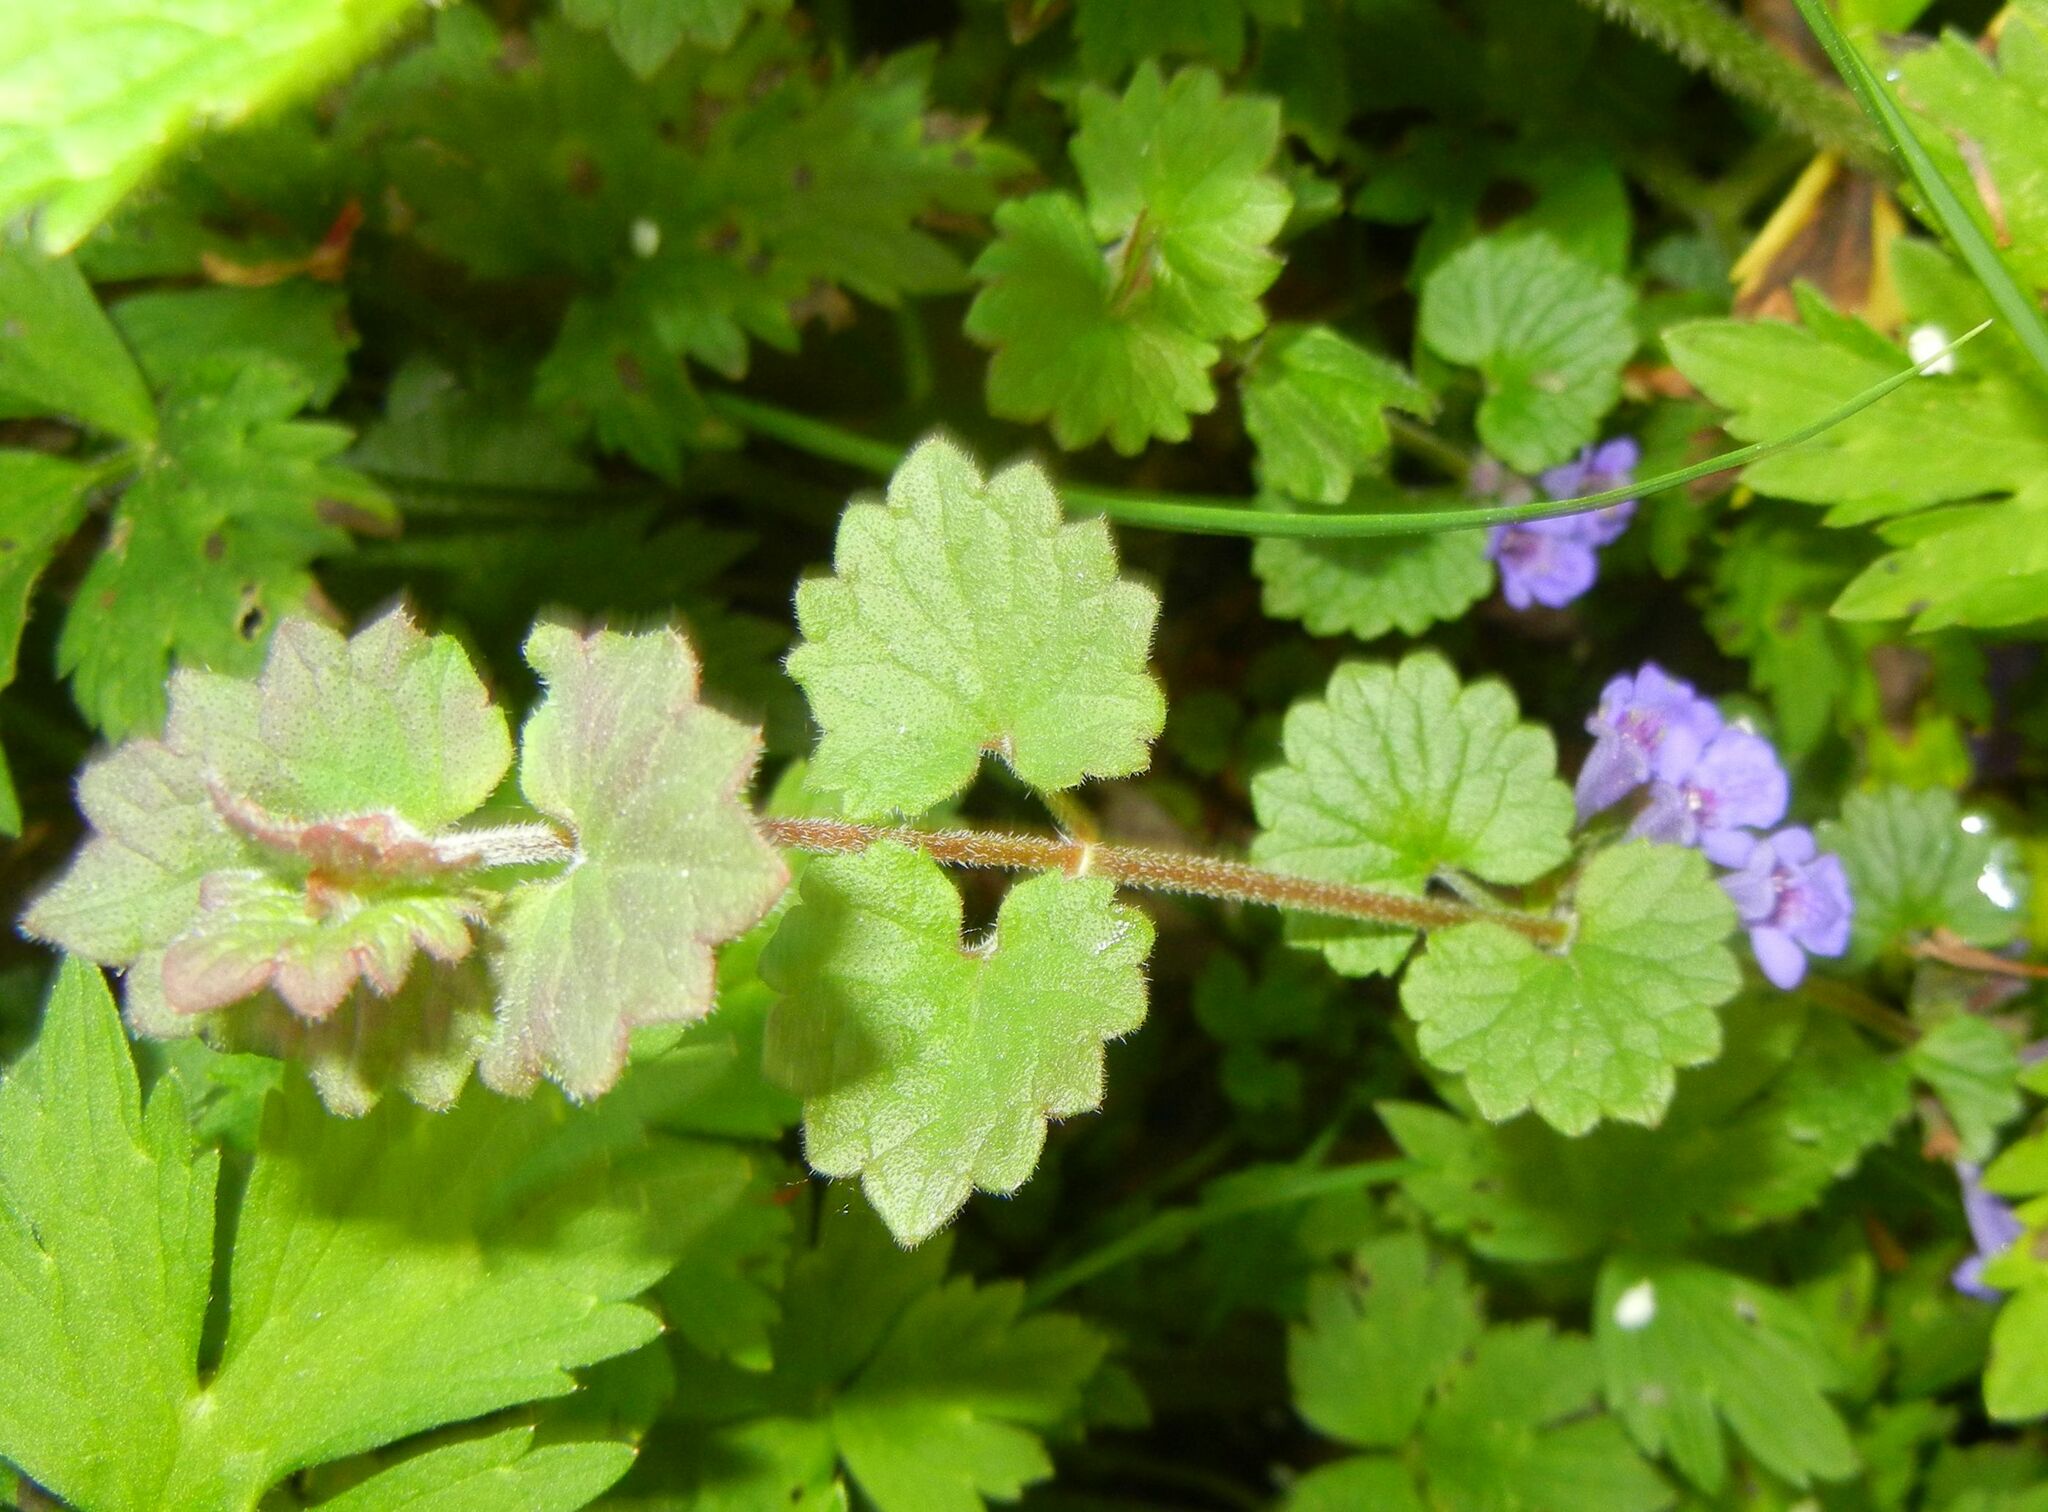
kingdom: Plantae
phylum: Tracheophyta
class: Magnoliopsida
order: Lamiales
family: Lamiaceae
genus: Glechoma
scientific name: Glechoma hederacea
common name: Ground ivy
